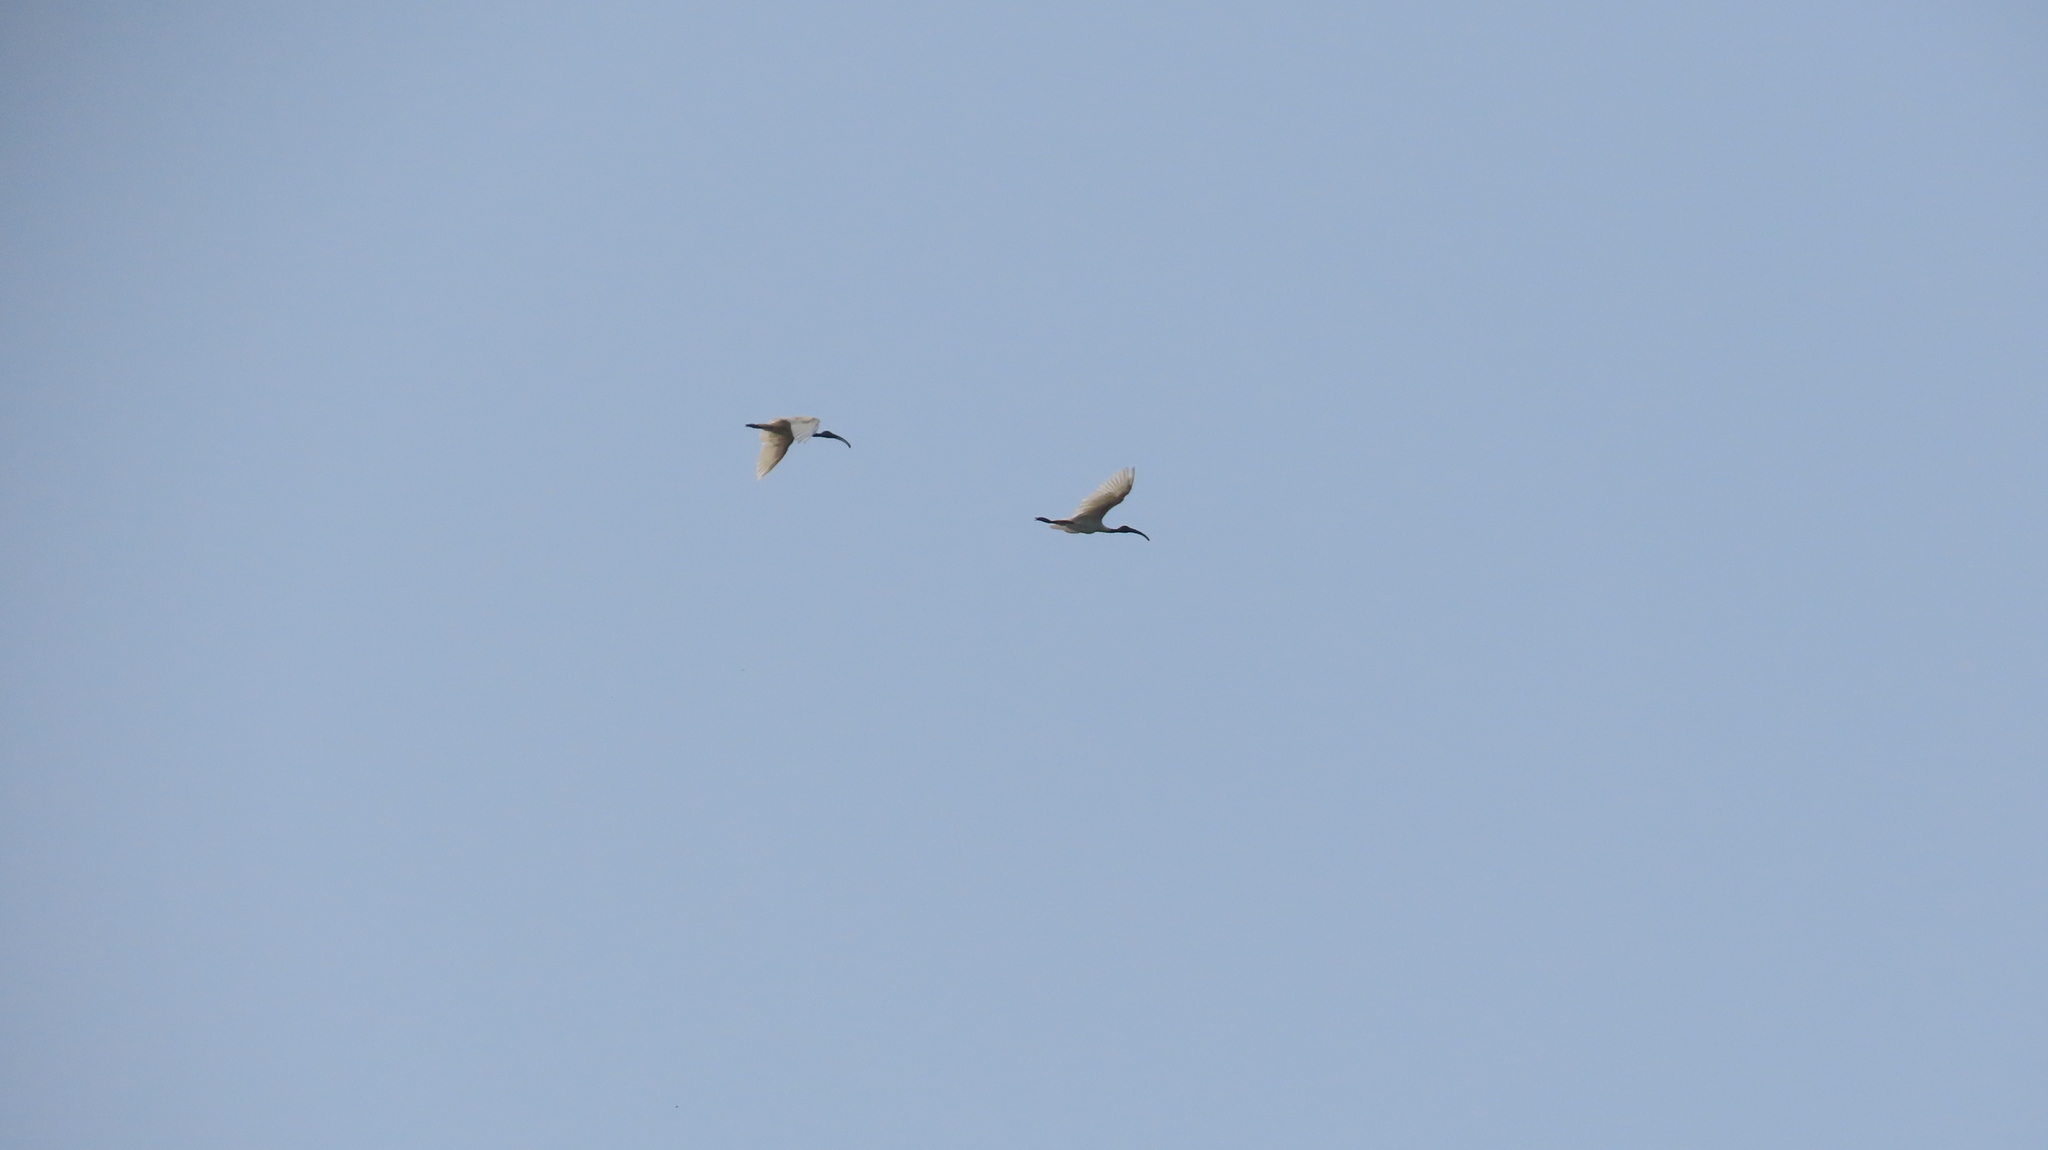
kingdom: Animalia
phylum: Chordata
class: Aves
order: Pelecaniformes
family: Threskiornithidae
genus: Threskiornis
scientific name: Threskiornis melanocephalus
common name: Black-headed ibis
